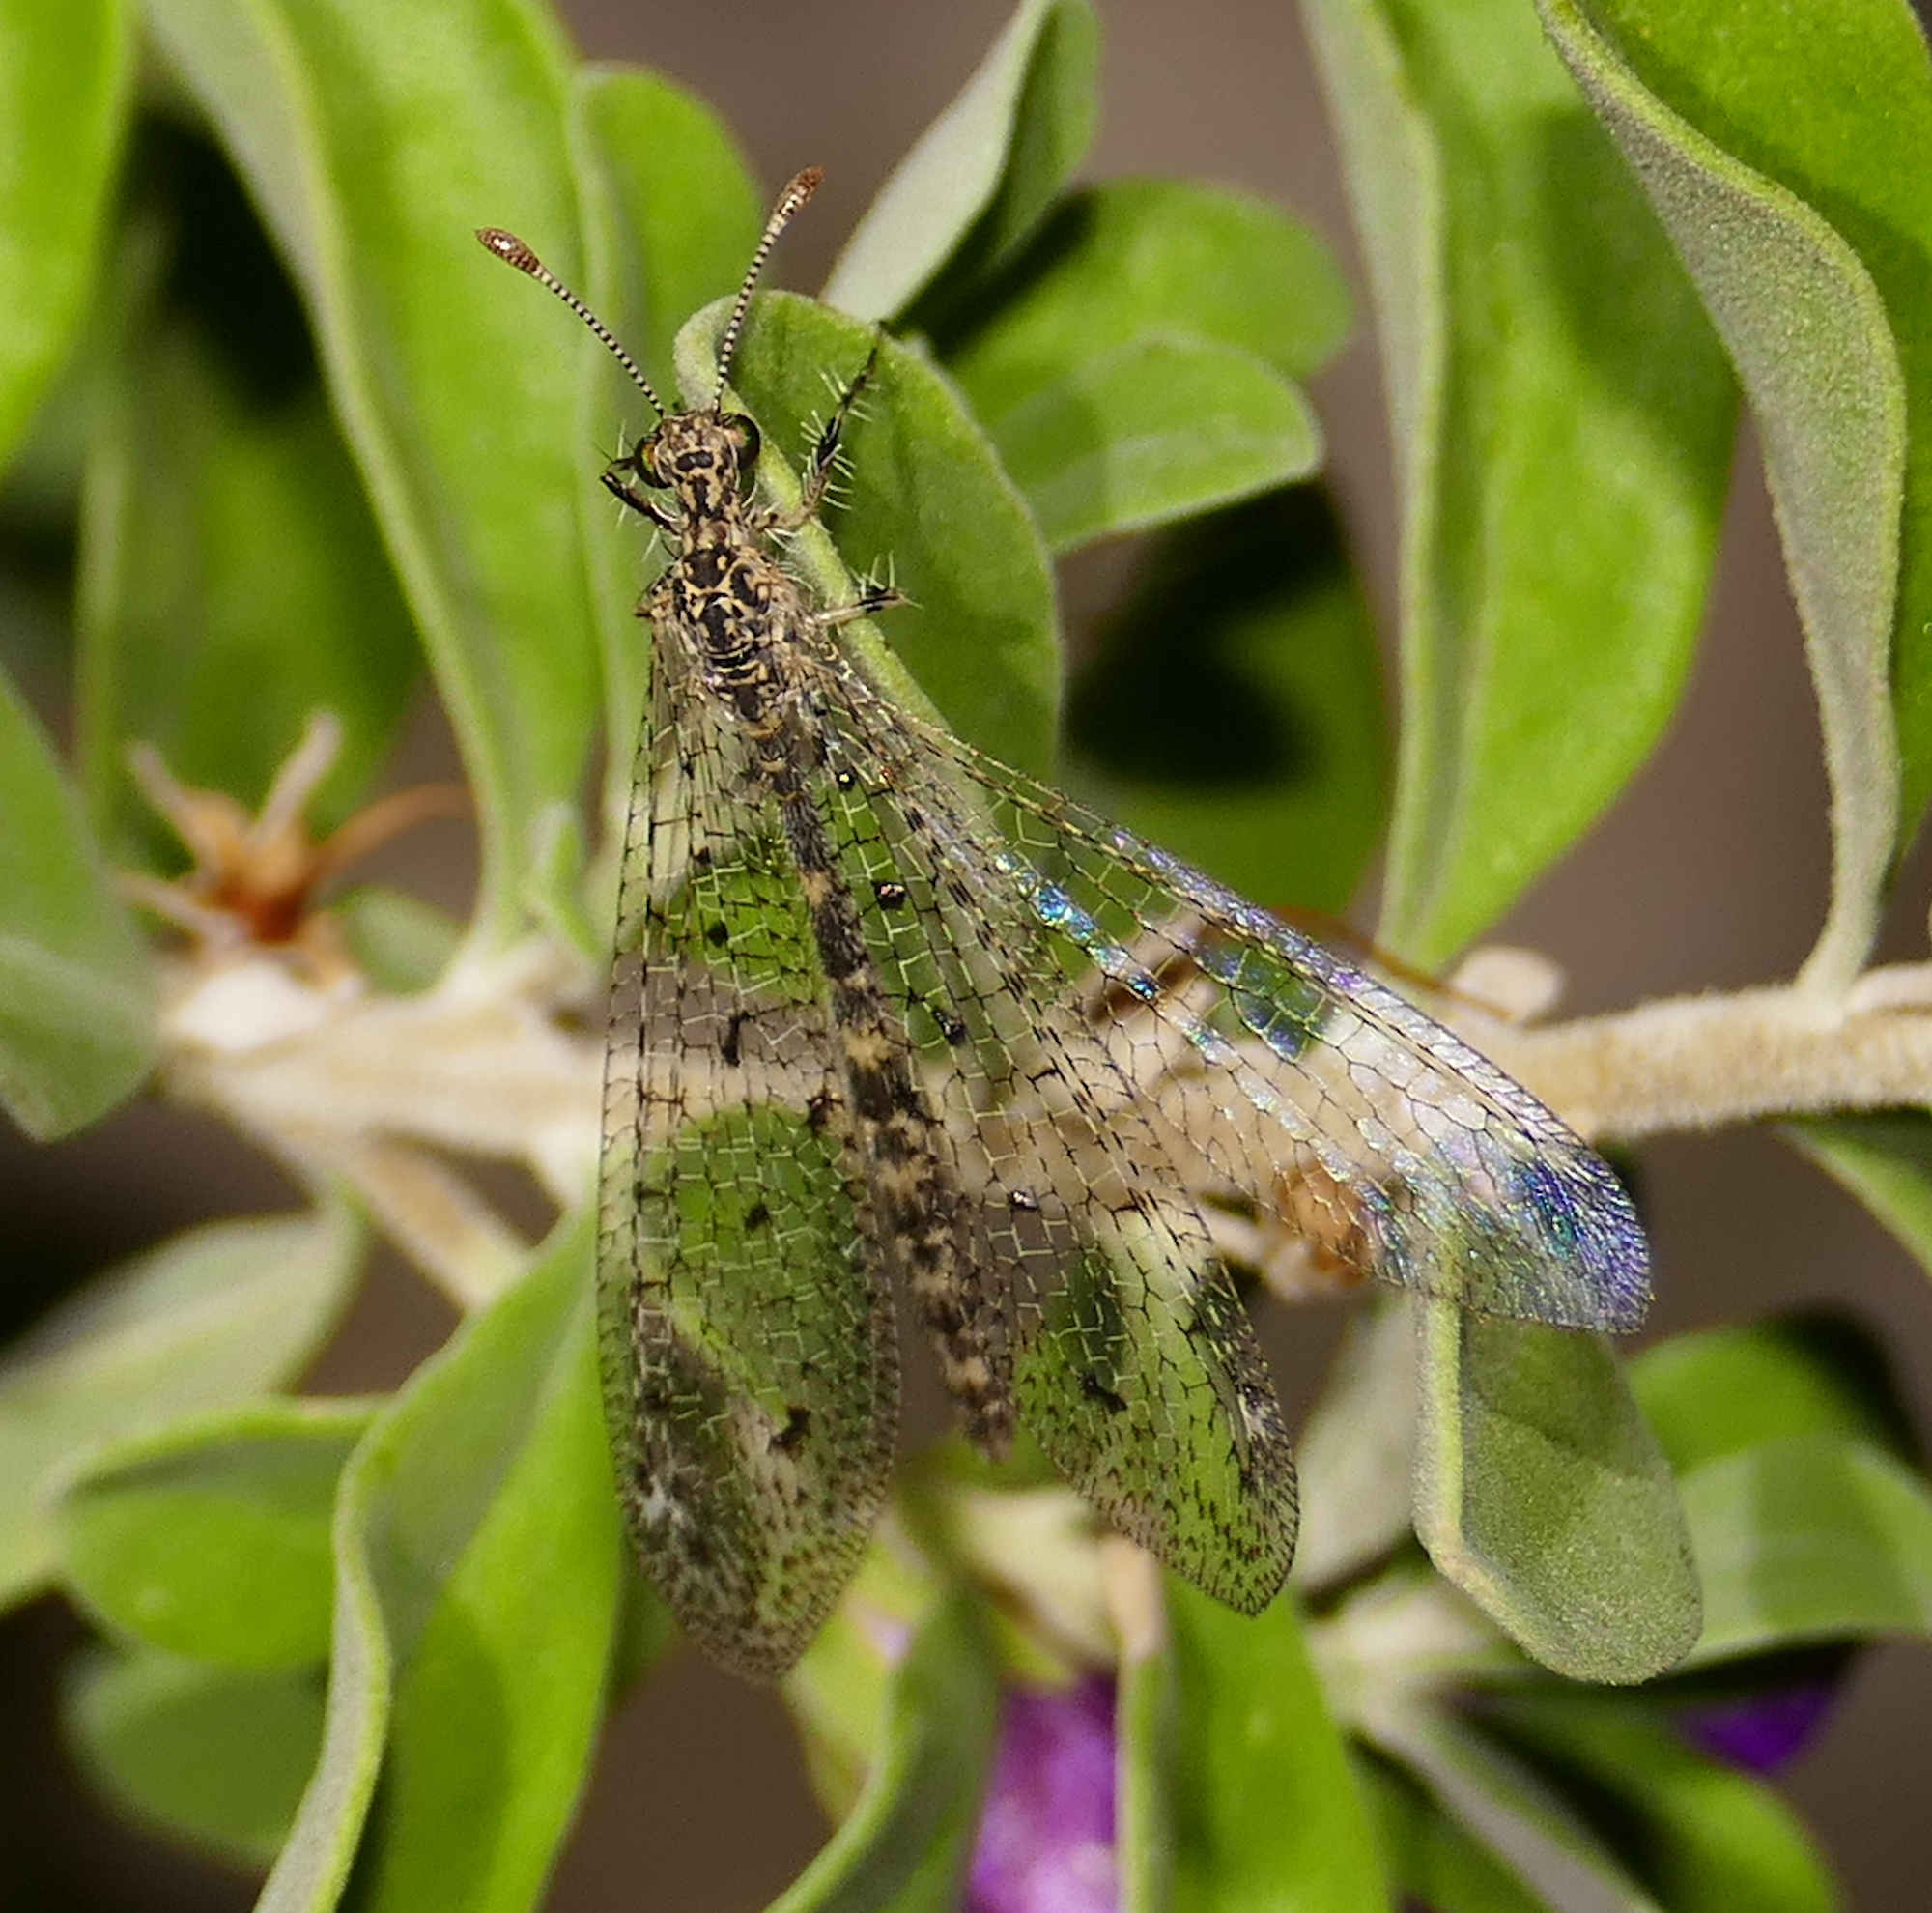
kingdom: Animalia
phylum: Arthropoda
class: Insecta
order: Neuroptera
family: Myrmeleontidae
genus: Chaetoleon
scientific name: Chaetoleon pusillus
